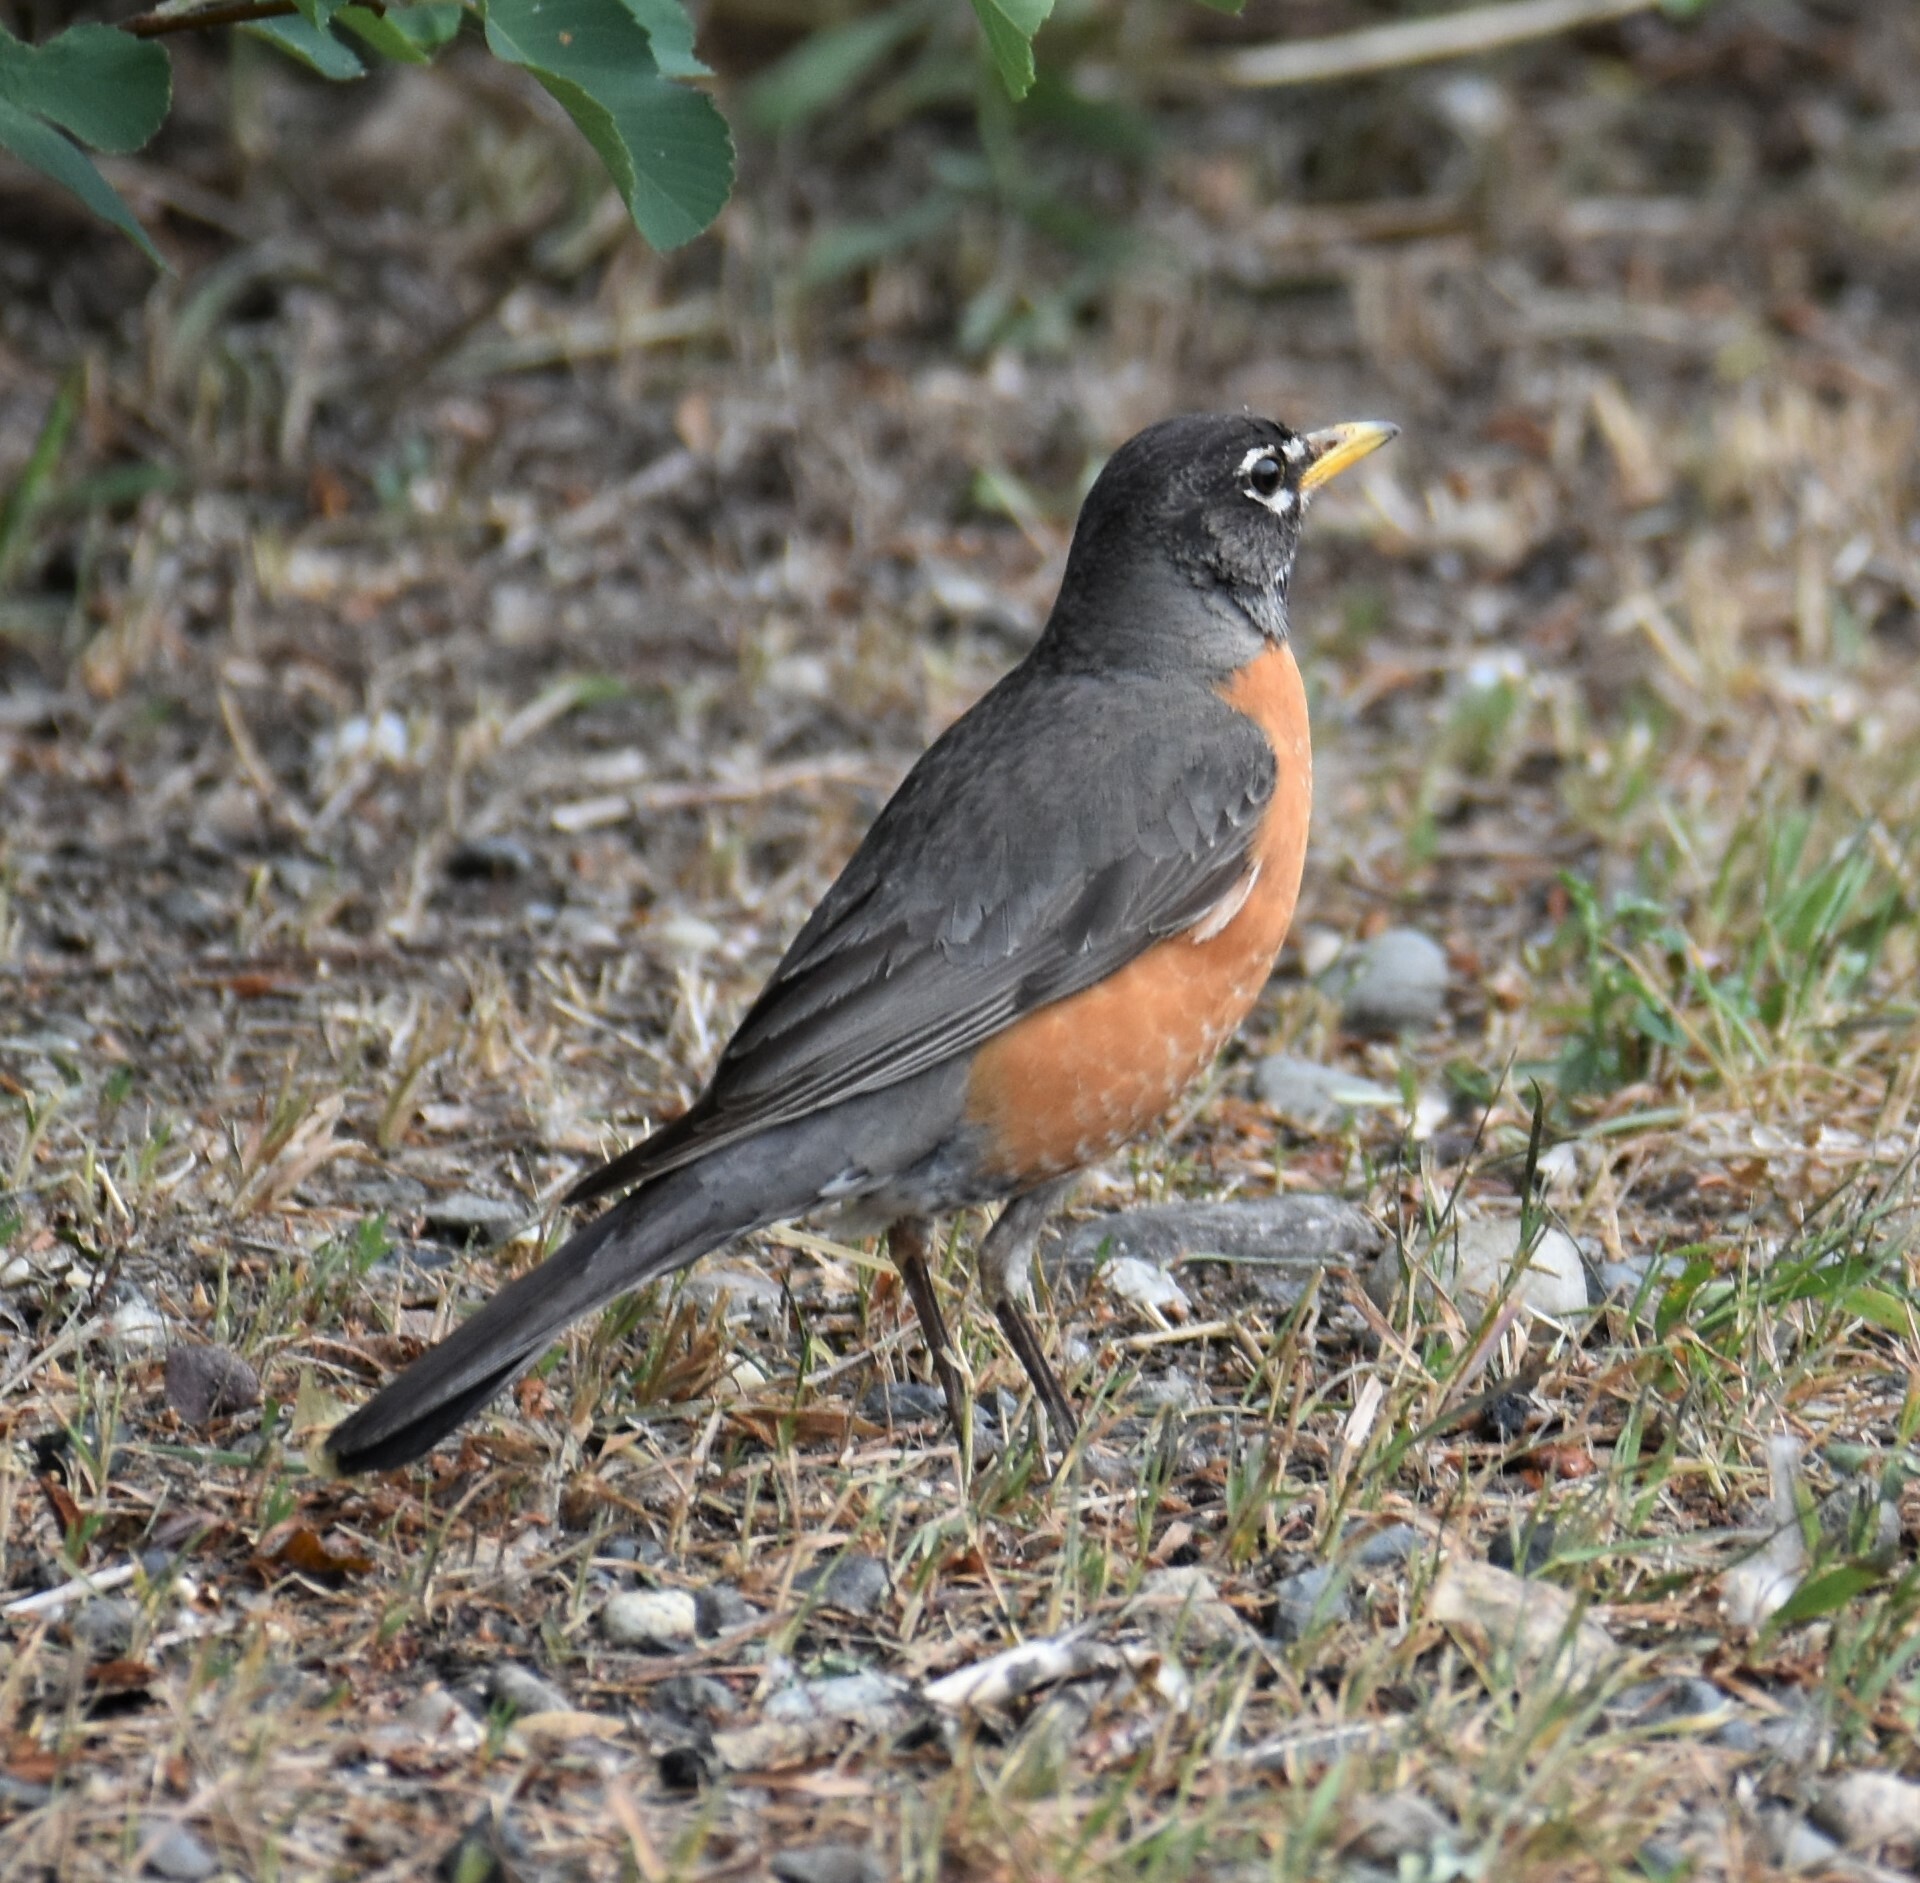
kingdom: Animalia
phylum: Chordata
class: Aves
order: Passeriformes
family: Turdidae
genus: Turdus
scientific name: Turdus migratorius
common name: American robin
